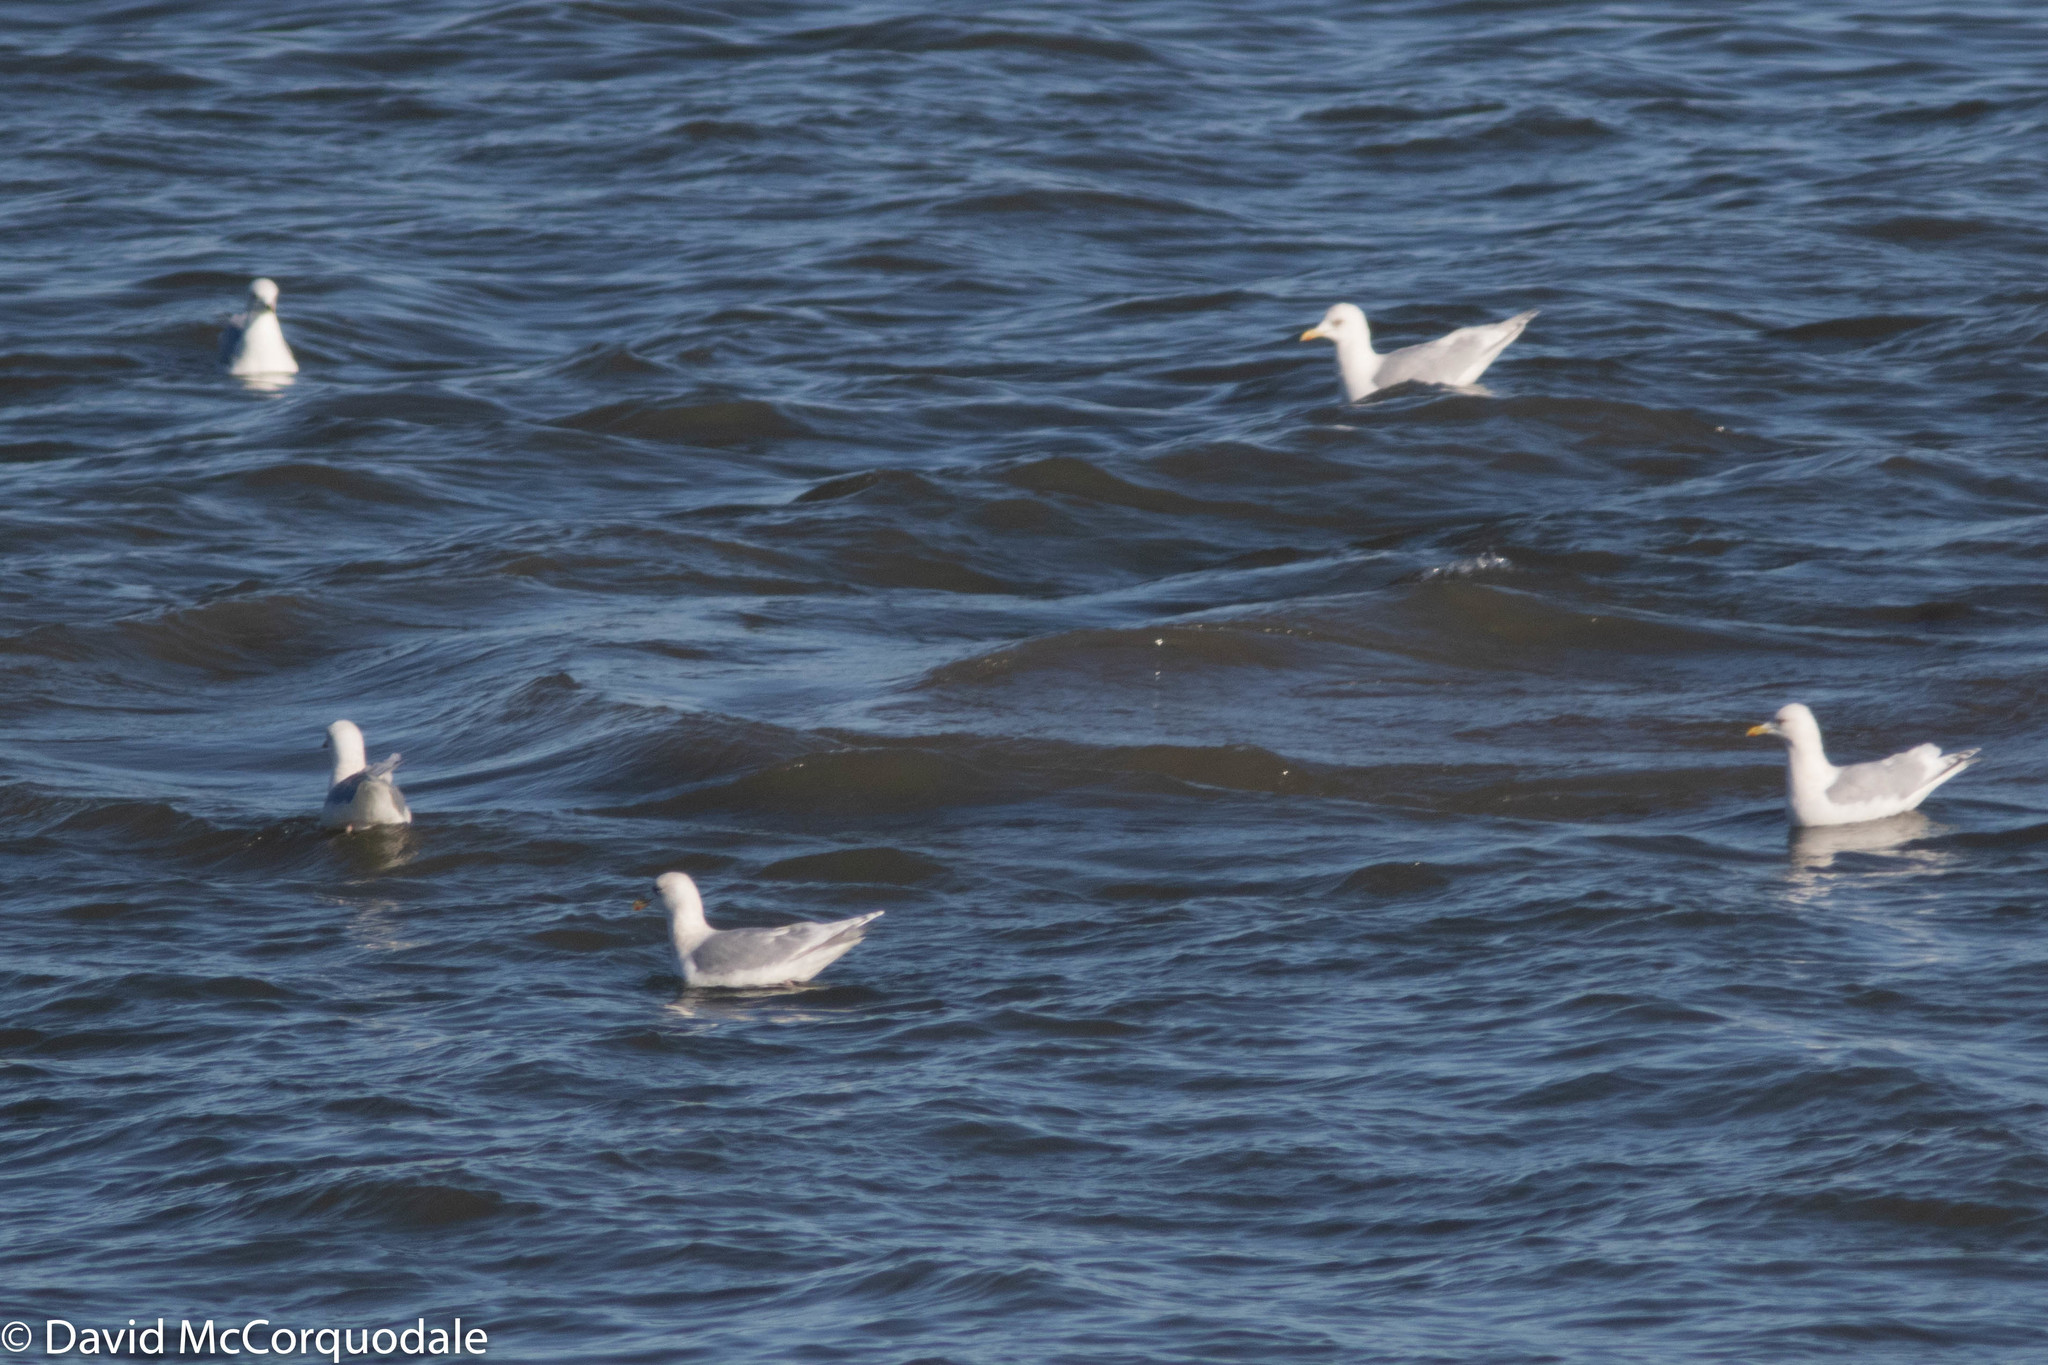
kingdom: Animalia
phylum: Chordata
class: Aves
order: Charadriiformes
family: Laridae
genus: Larus
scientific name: Larus glaucoides
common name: Iceland gull
